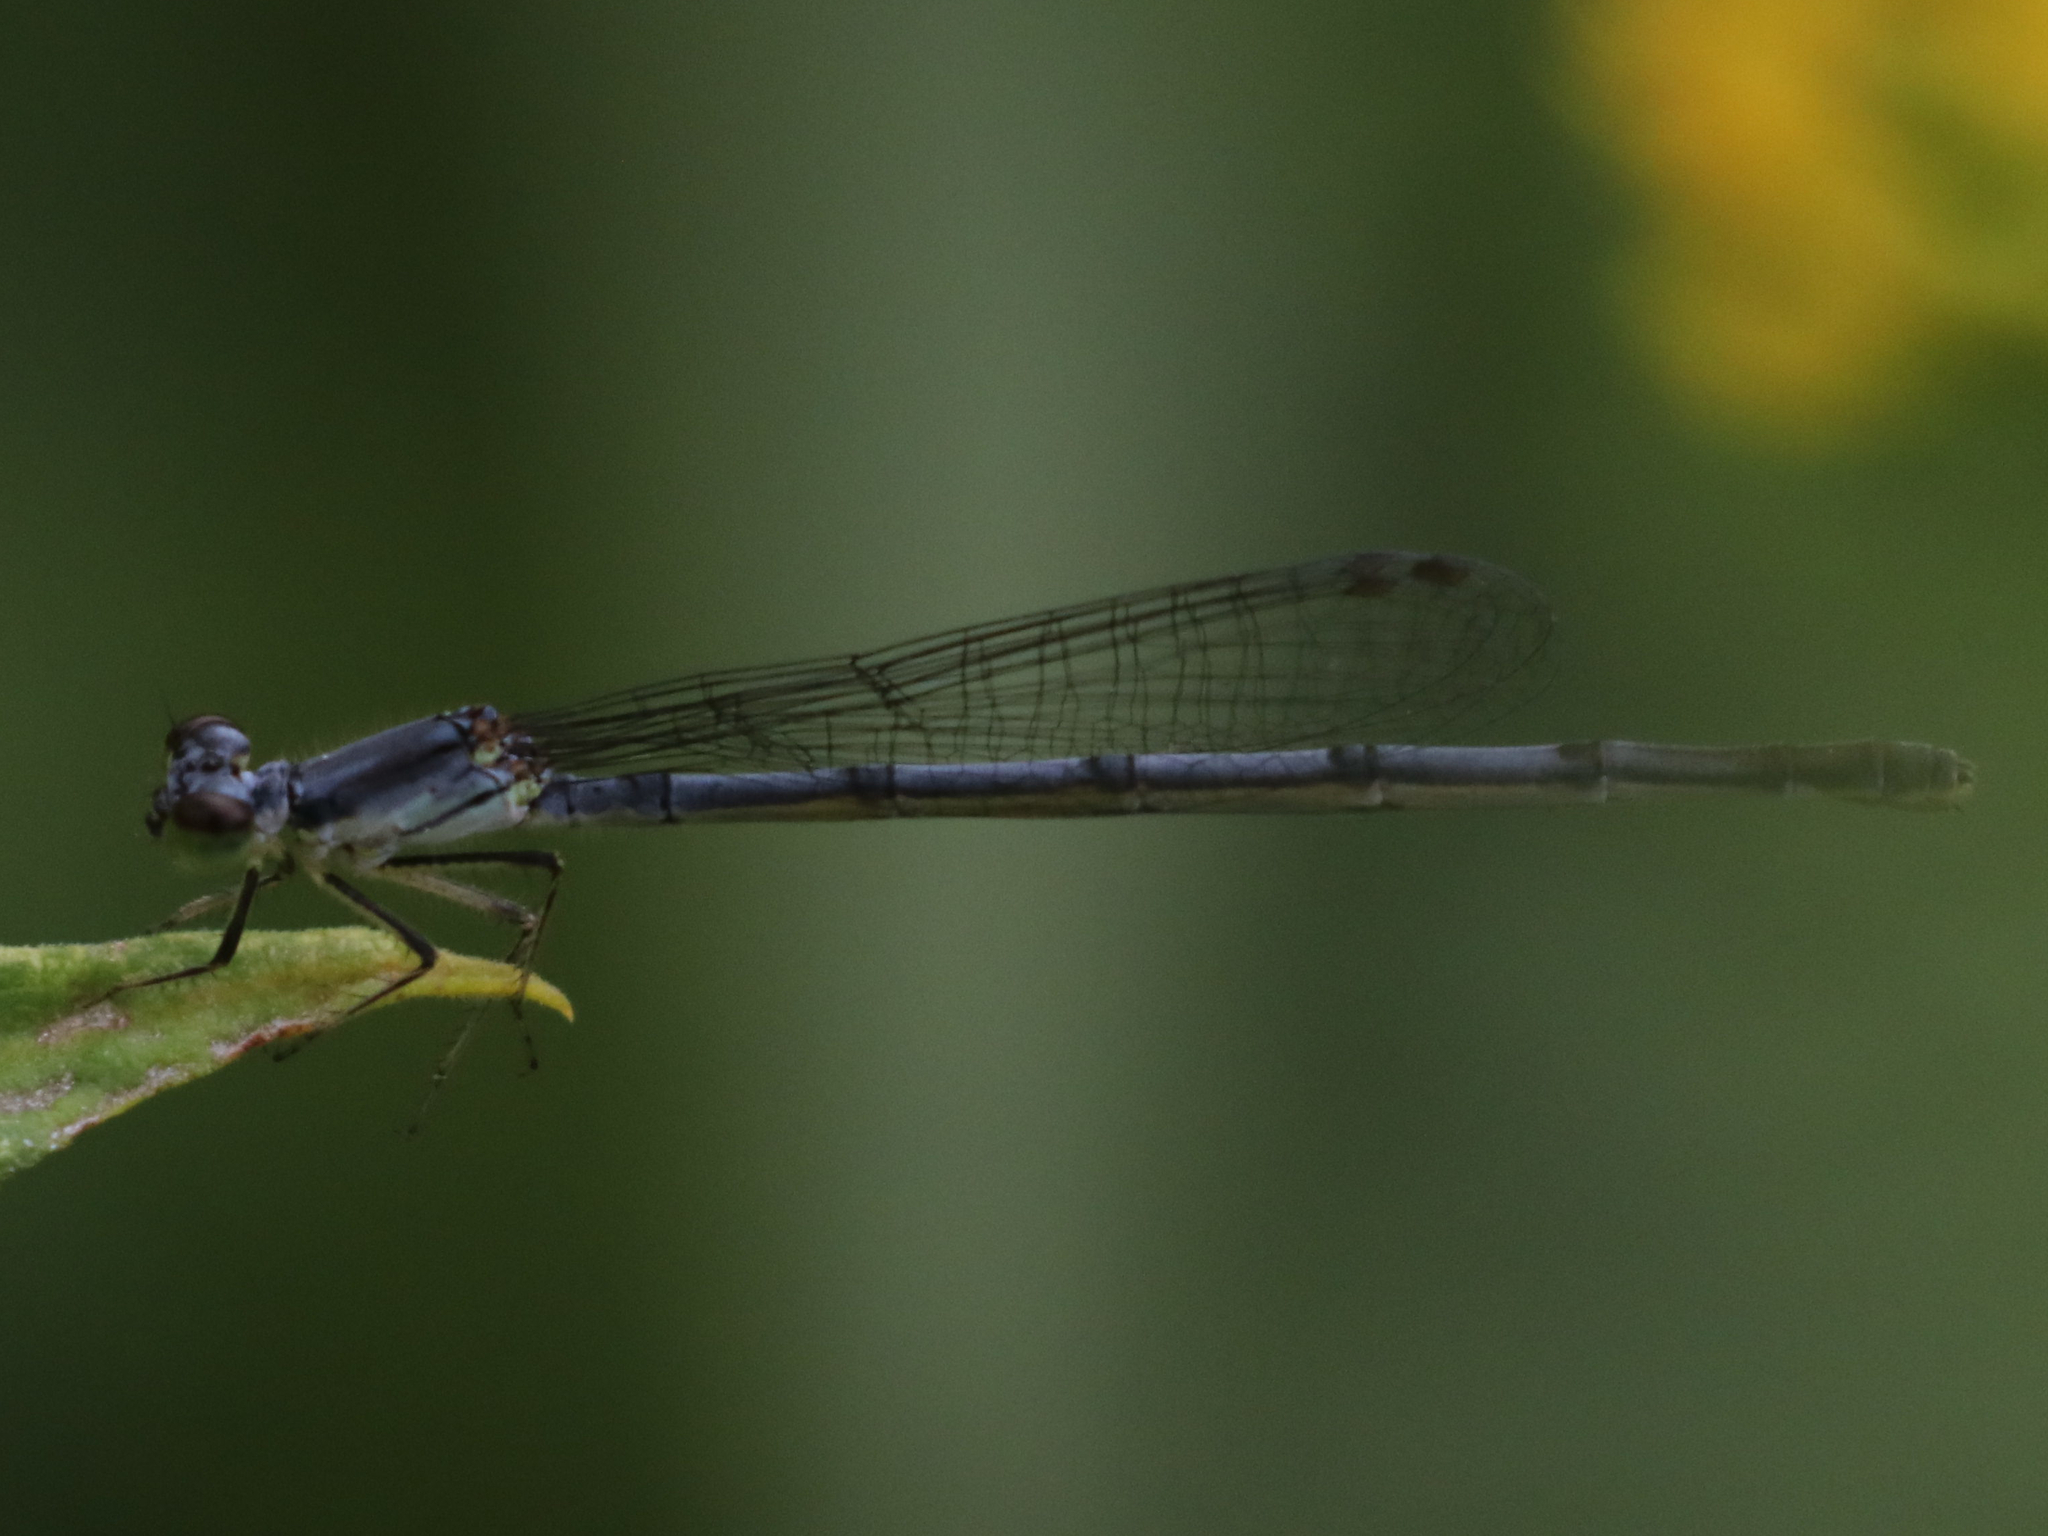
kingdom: Animalia
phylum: Arthropoda
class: Insecta
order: Odonata
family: Coenagrionidae
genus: Ischnura
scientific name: Ischnura posita
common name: Fragile forktail
